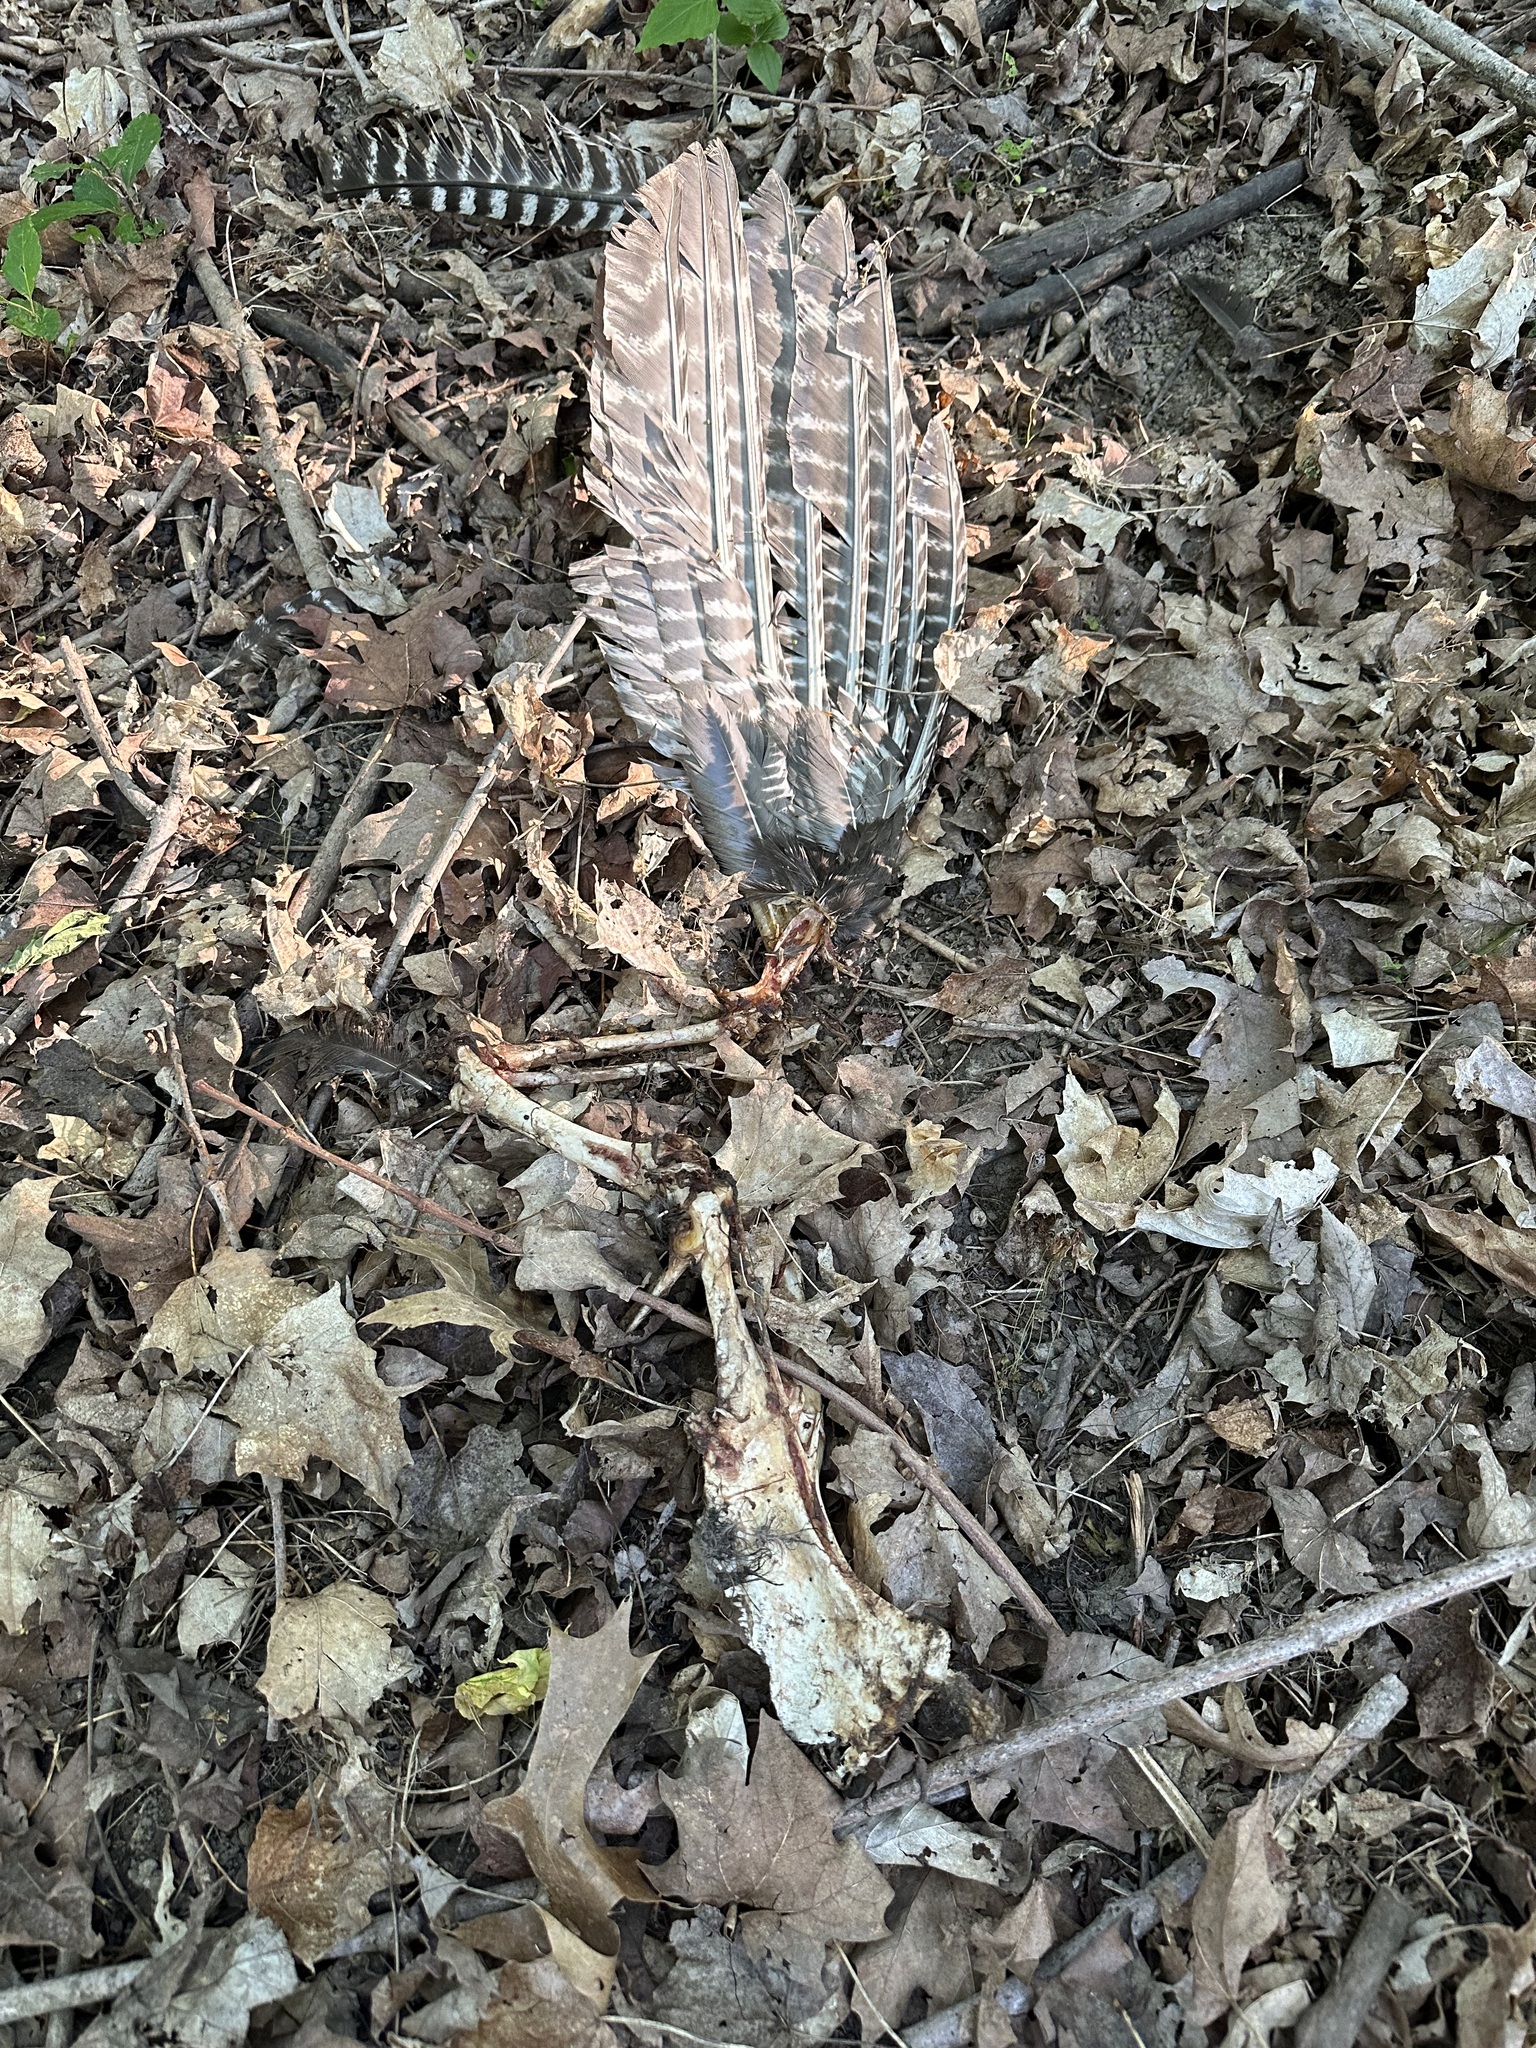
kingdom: Animalia
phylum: Chordata
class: Aves
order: Galliformes
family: Phasianidae
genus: Meleagris
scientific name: Meleagris gallopavo
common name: Wild turkey
